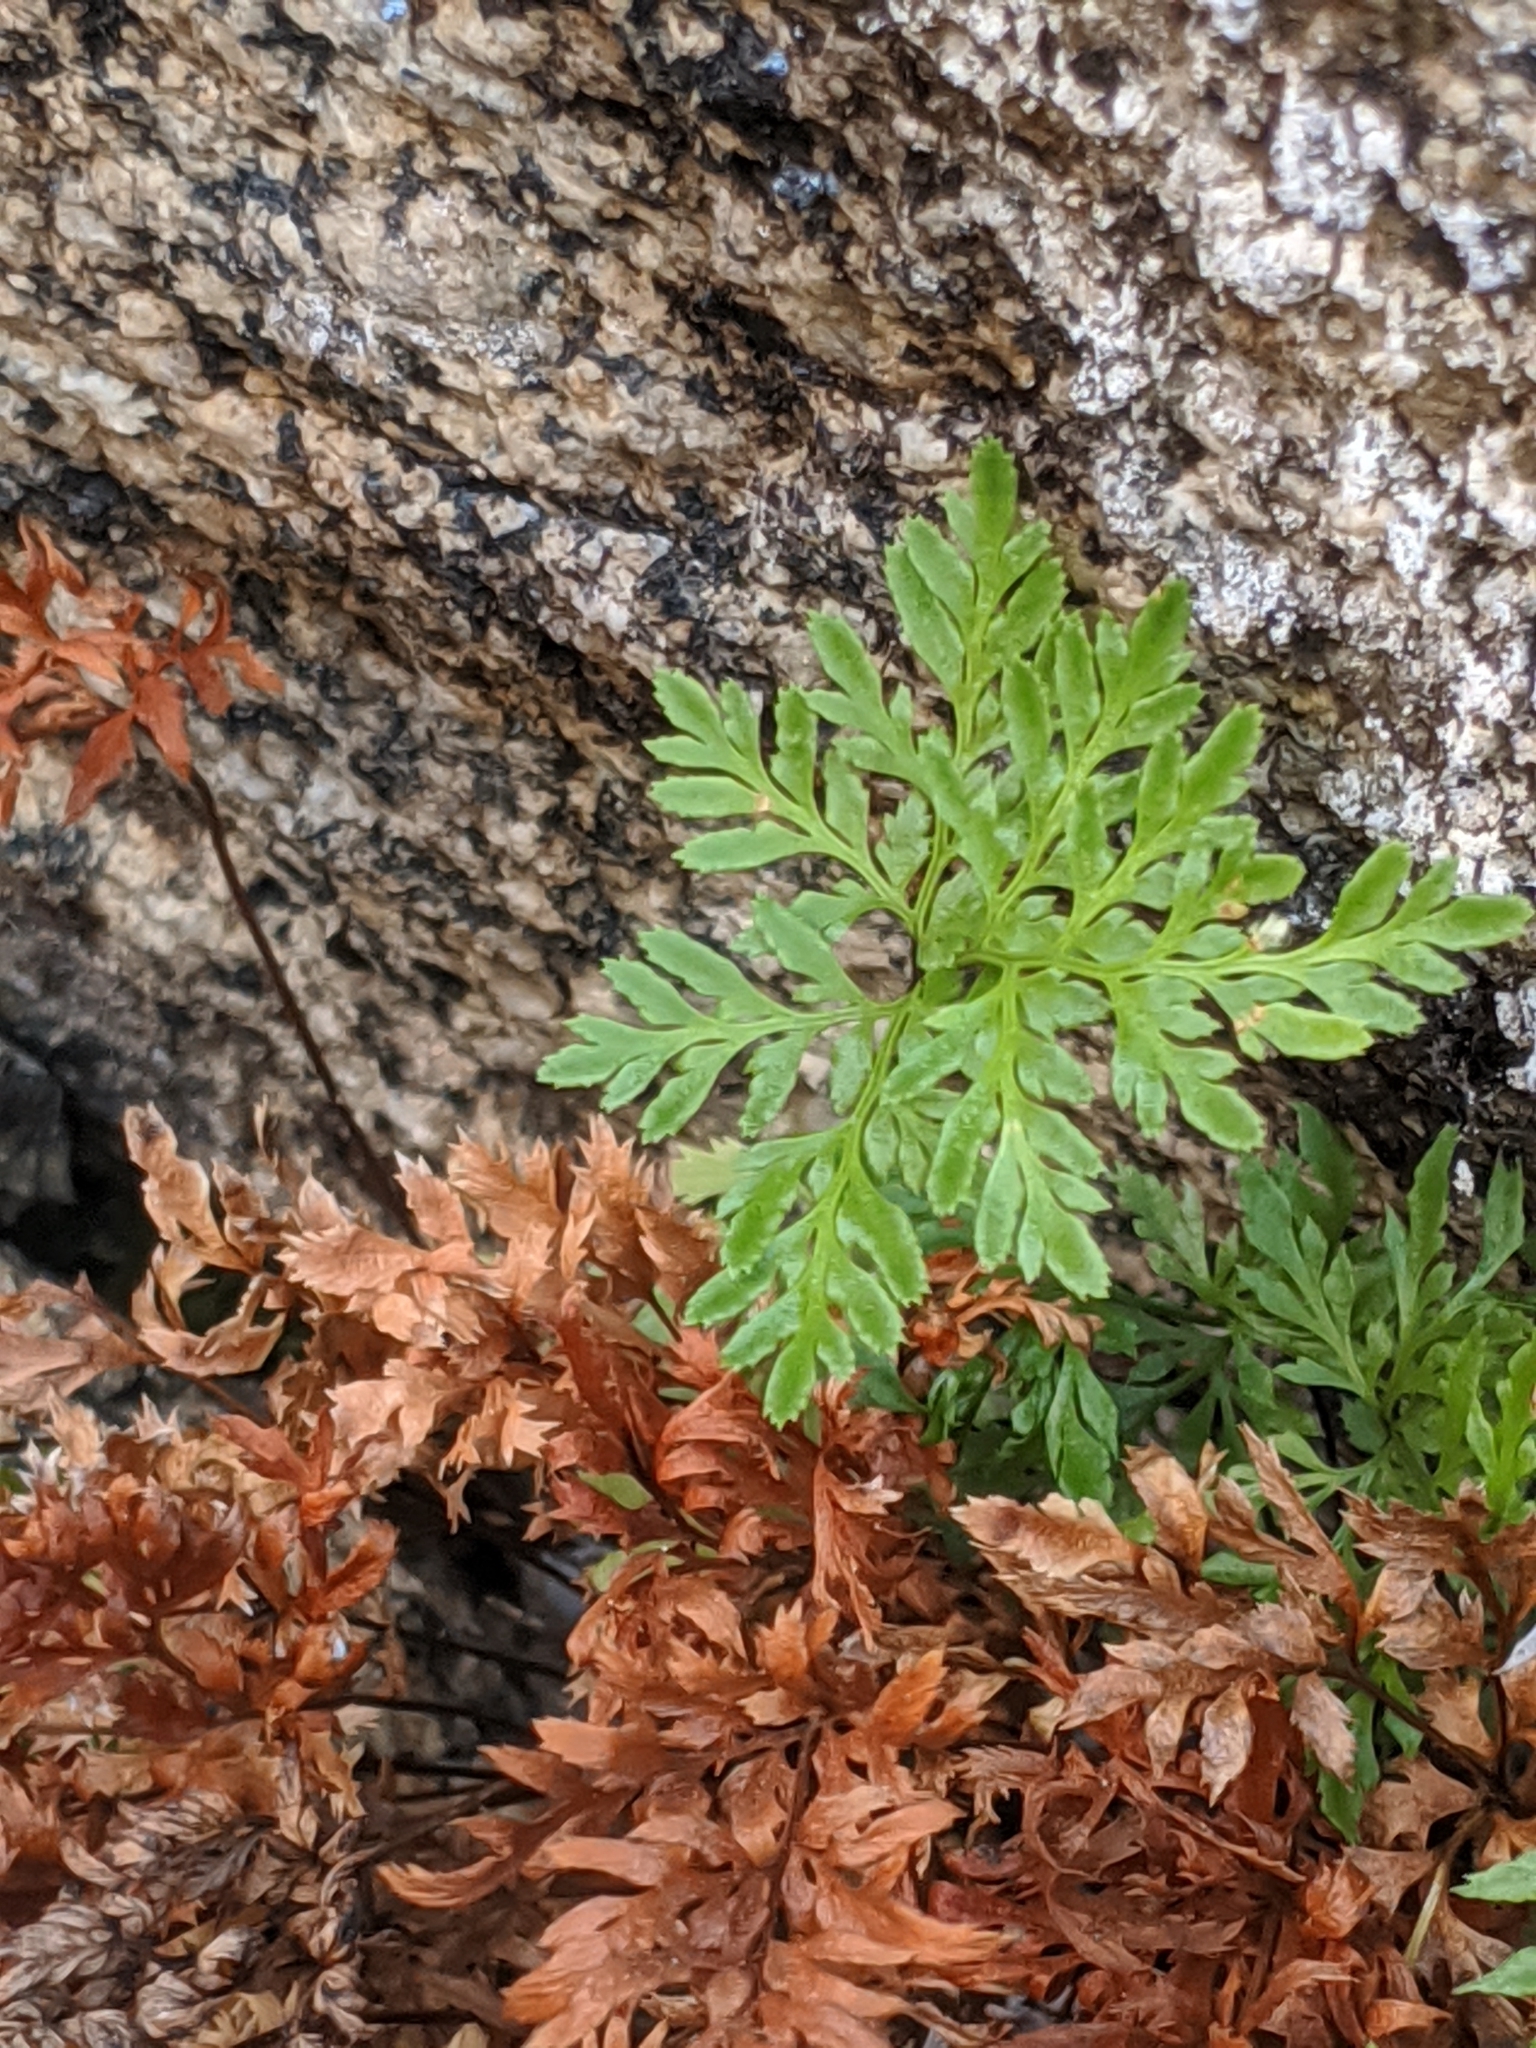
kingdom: Plantae
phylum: Tracheophyta
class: Polypodiopsida
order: Polypodiales
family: Pteridaceae
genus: Aspidotis
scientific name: Aspidotis densa
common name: Indian's dream
